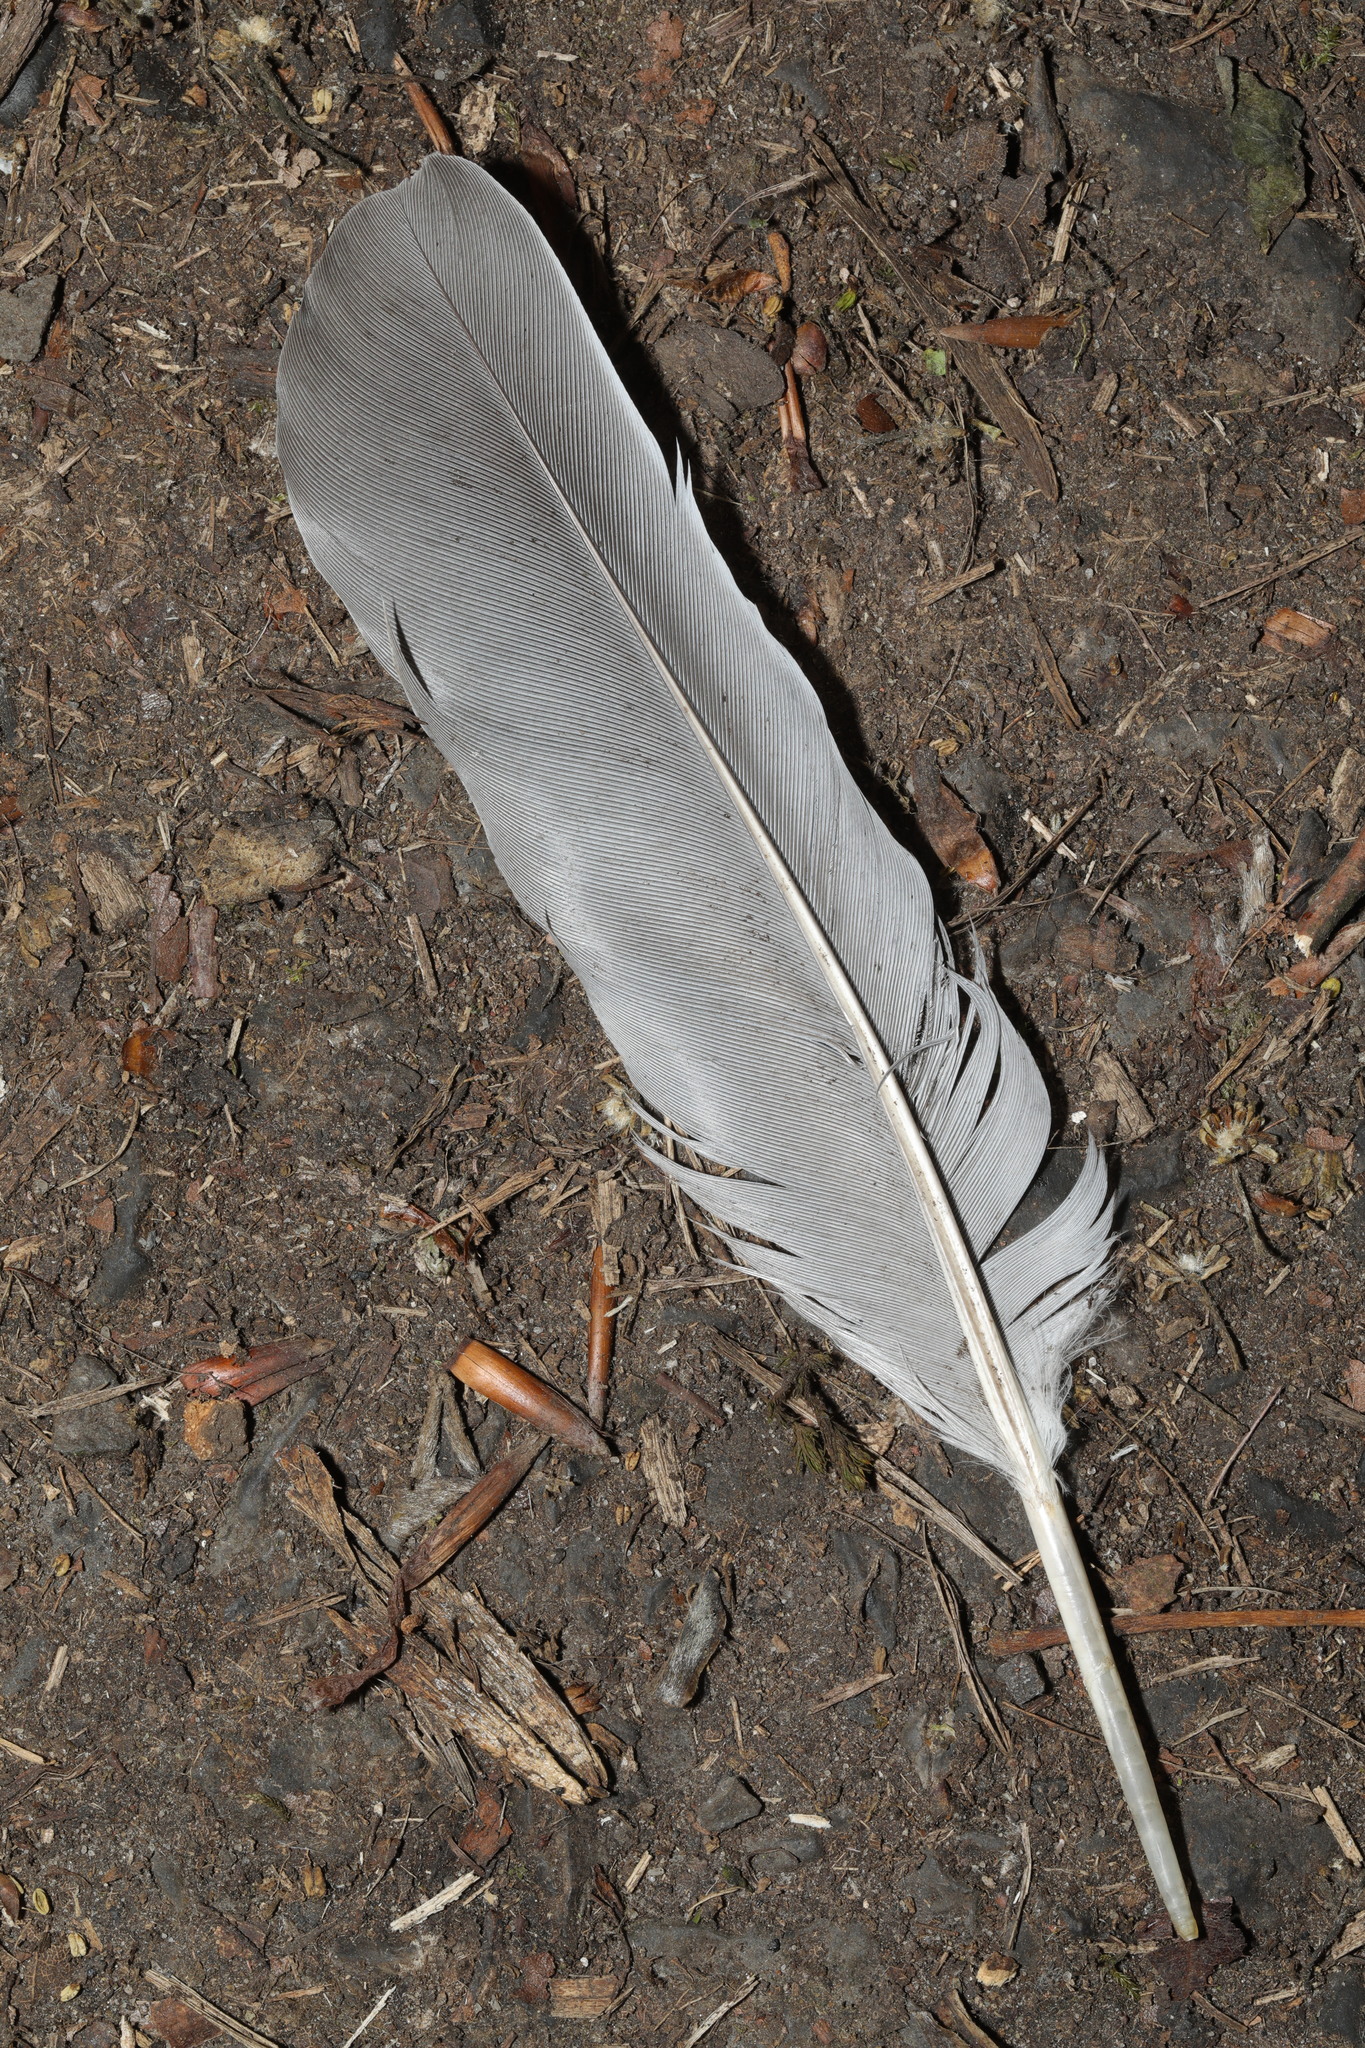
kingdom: Animalia
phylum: Chordata
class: Aves
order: Columbiformes
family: Columbidae
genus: Columba
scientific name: Columba palumbus
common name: Common wood pigeon
